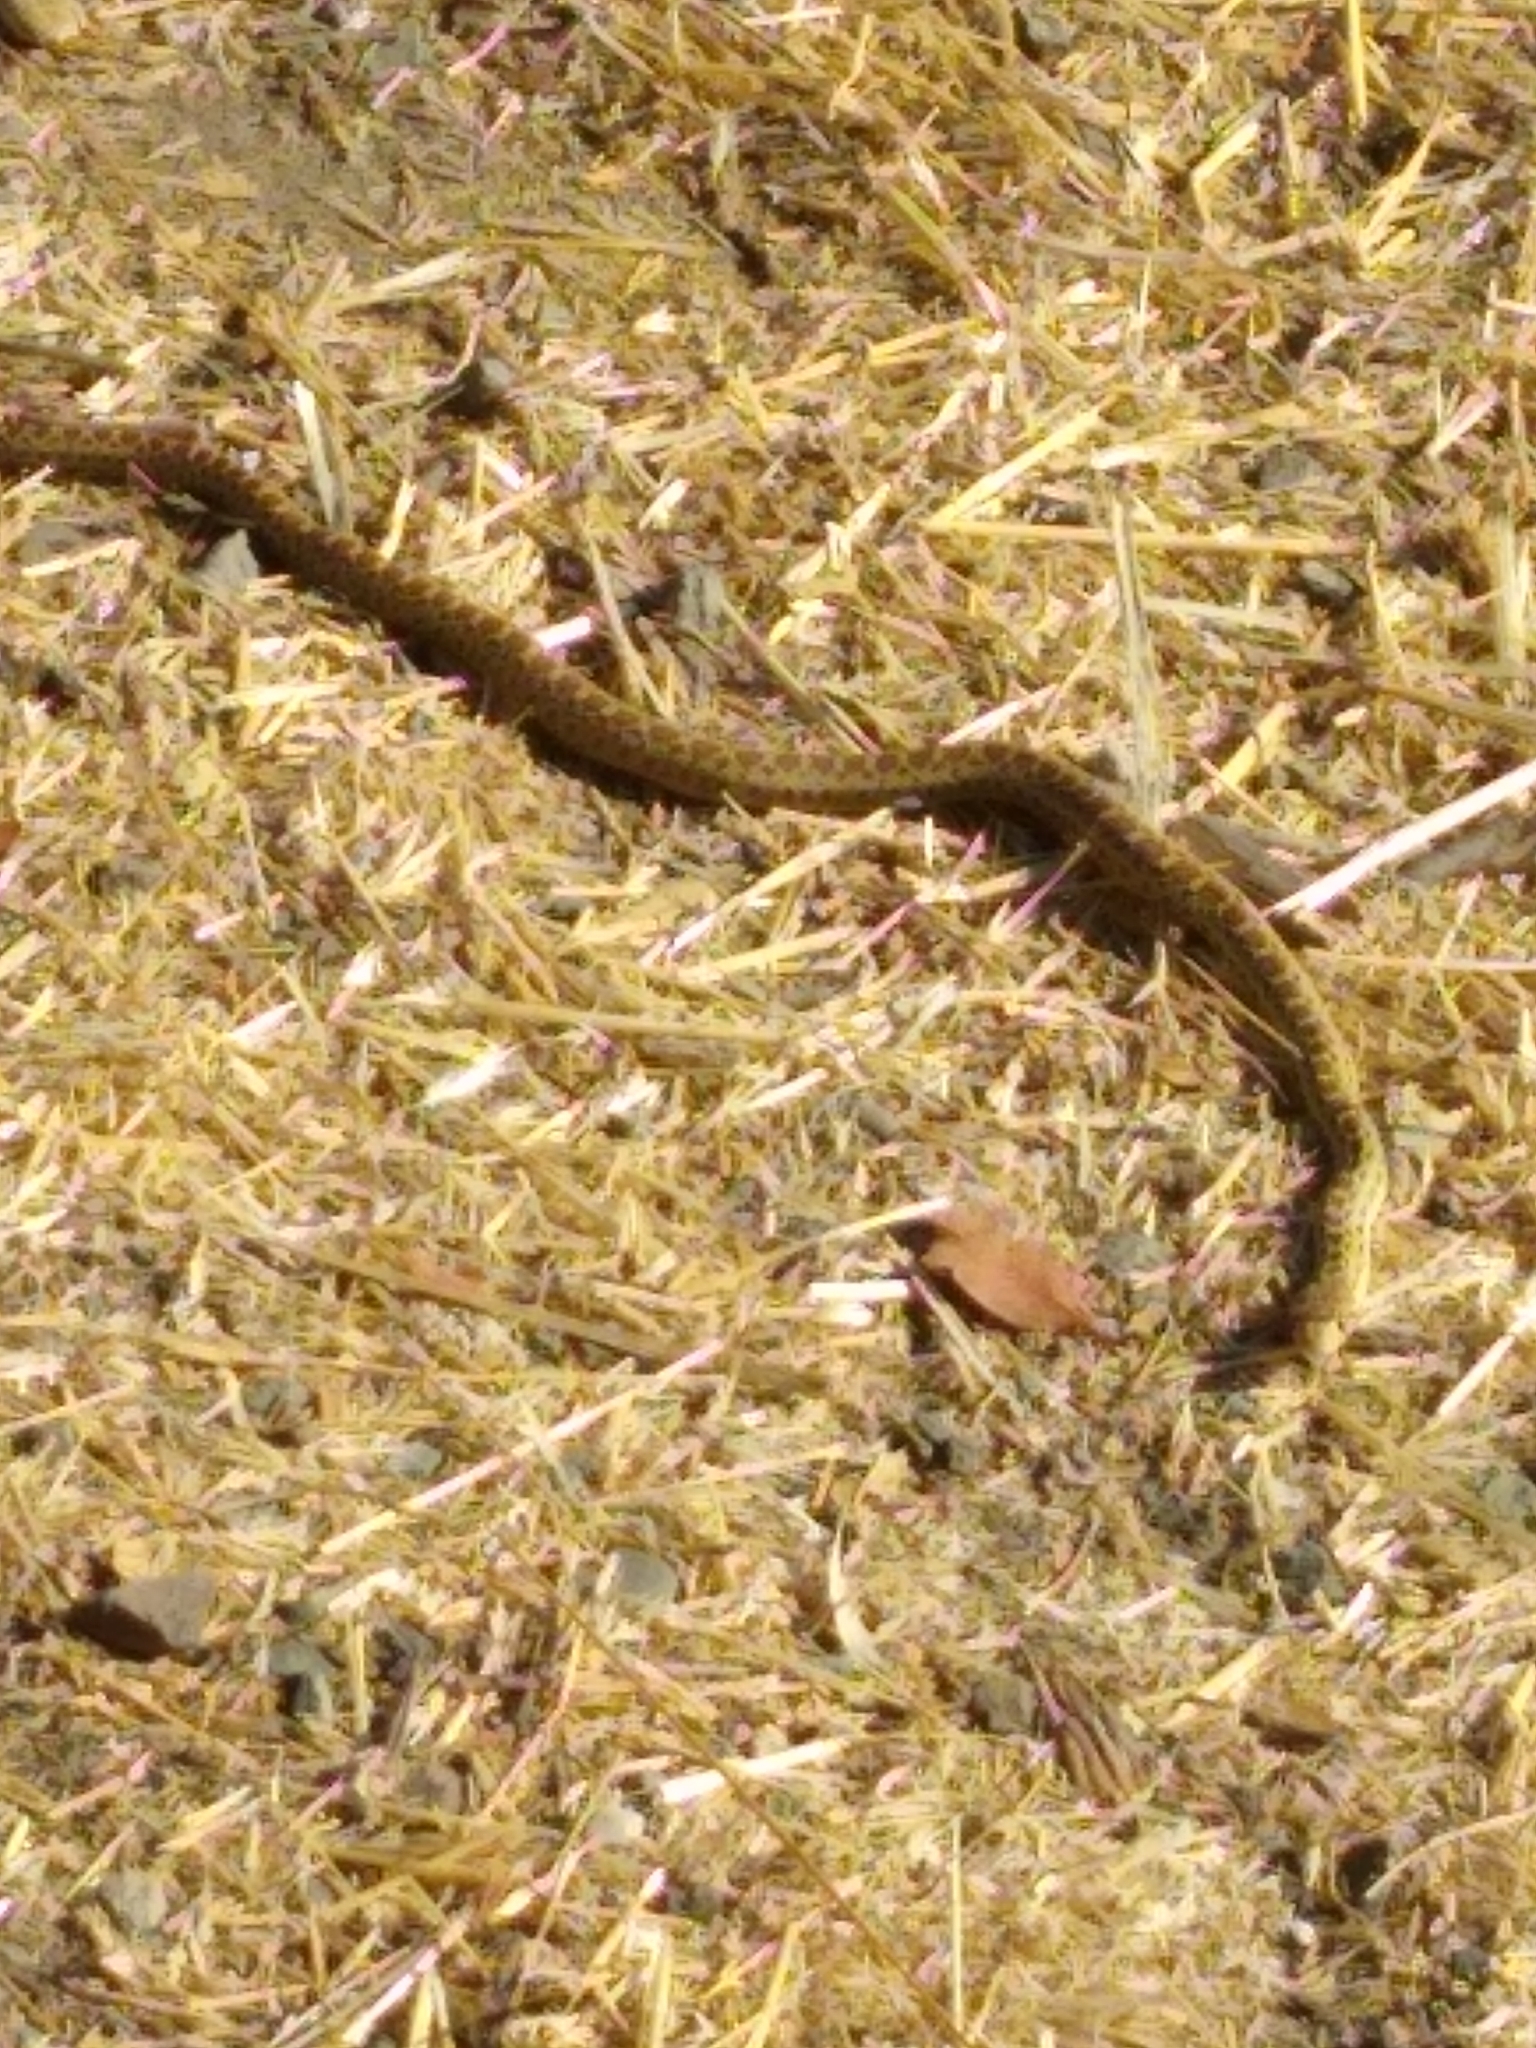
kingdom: Animalia
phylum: Chordata
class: Squamata
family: Colubridae
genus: Pituophis
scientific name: Pituophis catenifer
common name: Gopher snake
